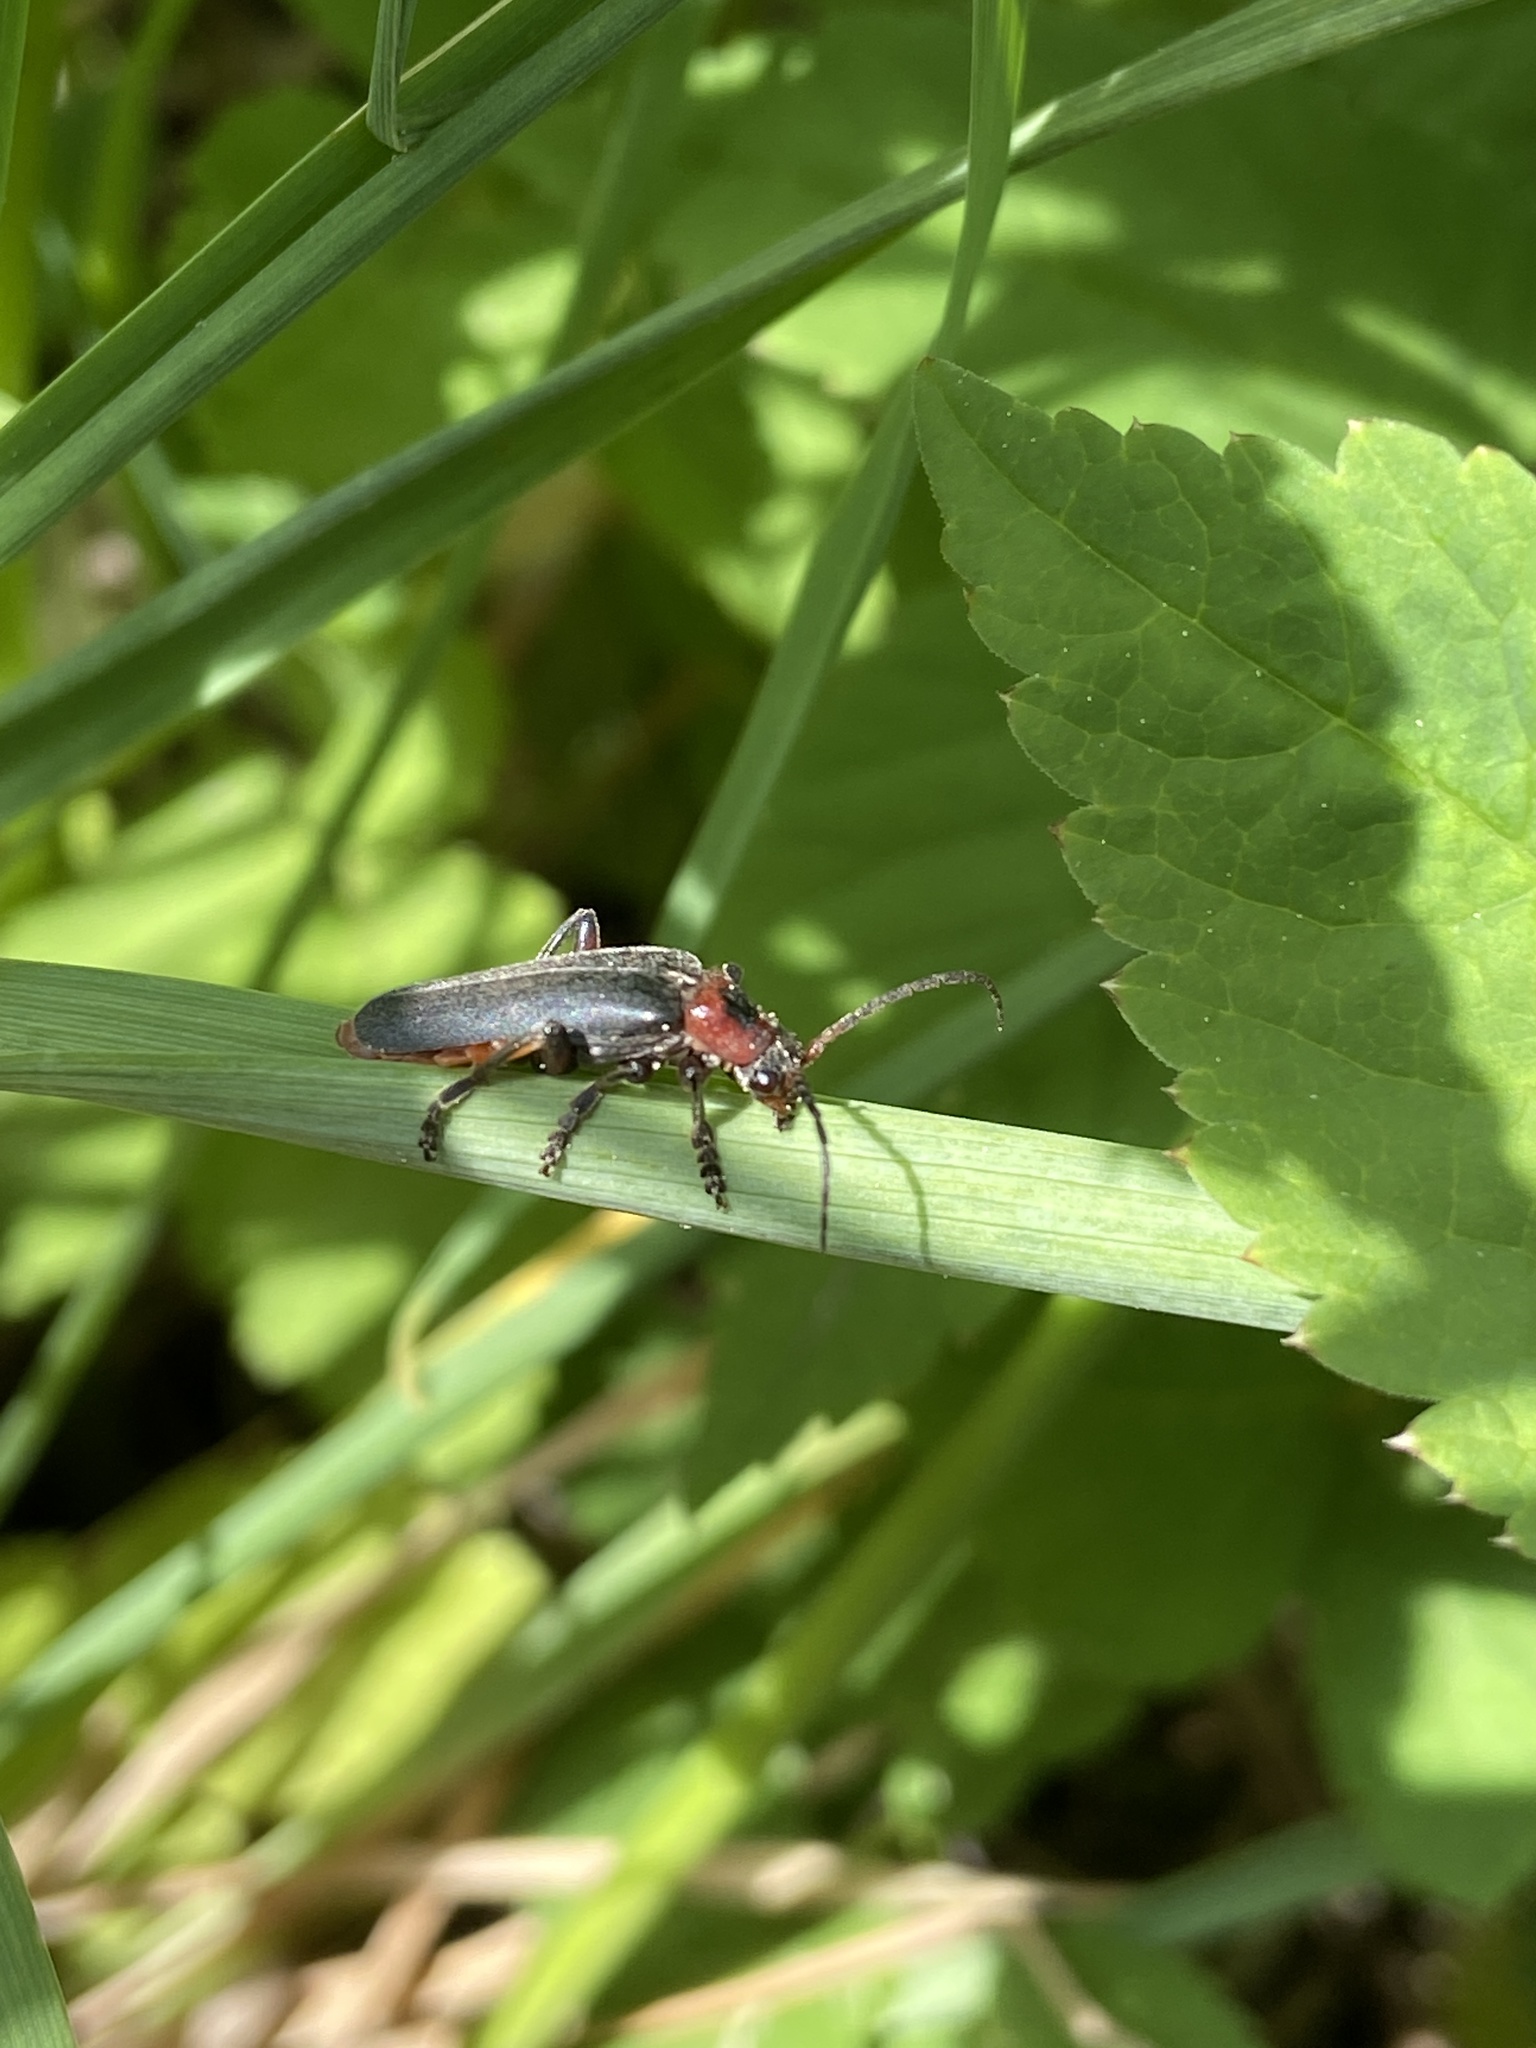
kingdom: Animalia
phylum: Arthropoda
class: Insecta
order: Coleoptera
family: Cantharidae
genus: Cantharis
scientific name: Cantharis rustica
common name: Soldier beetle
